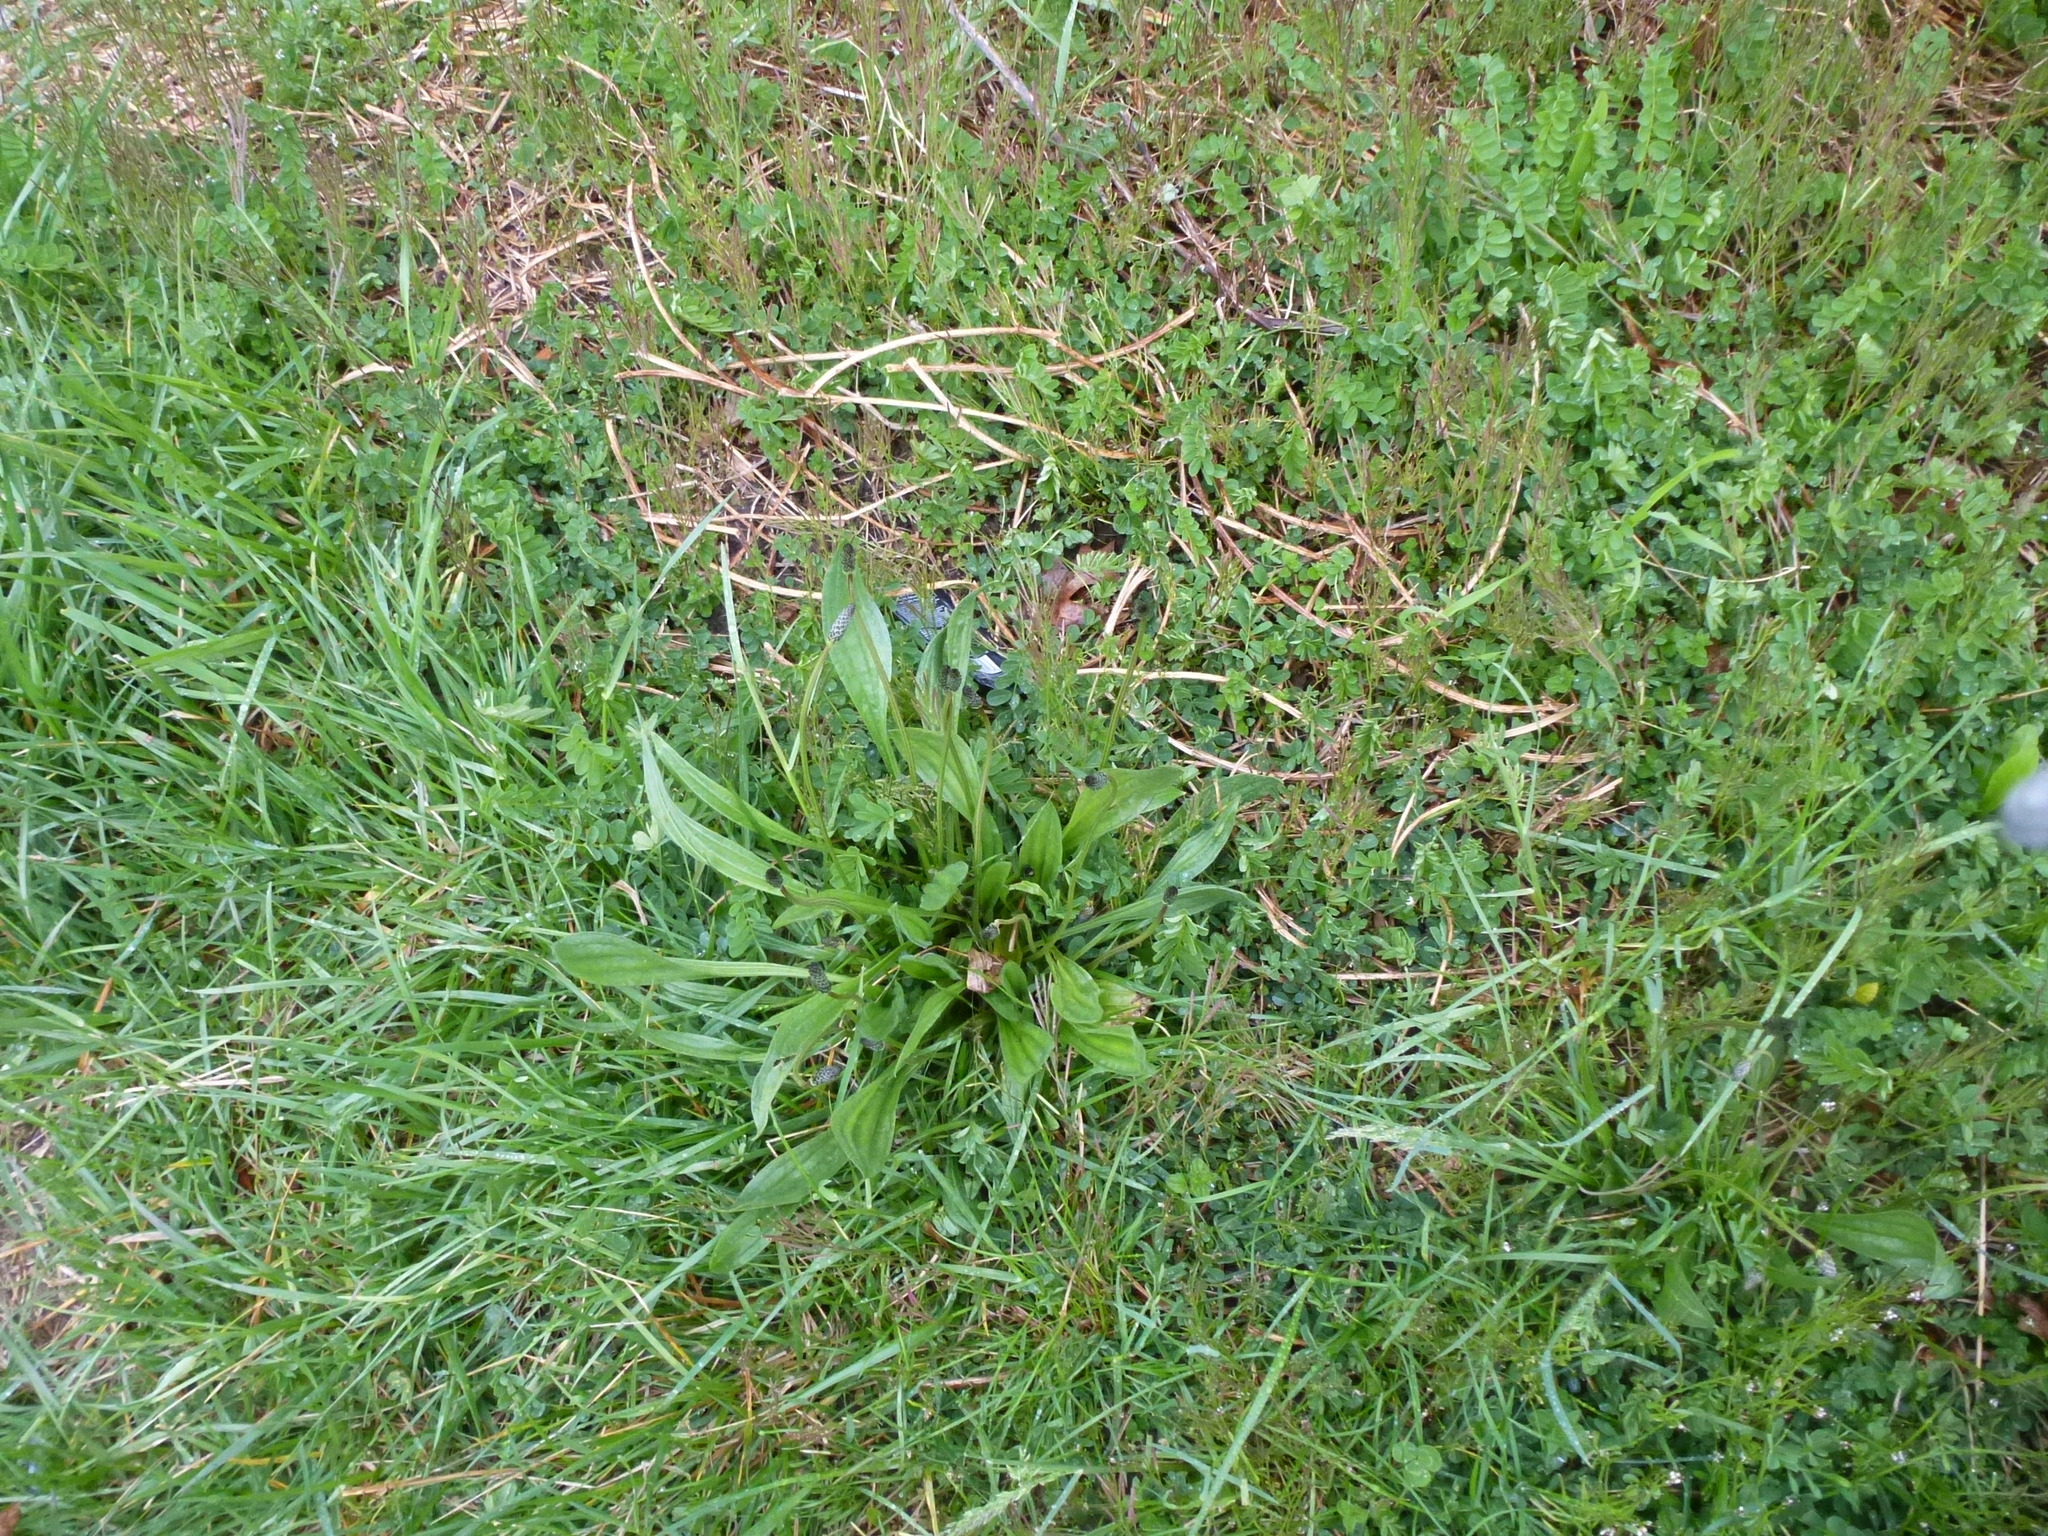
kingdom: Plantae
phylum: Tracheophyta
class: Magnoliopsida
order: Lamiales
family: Plantaginaceae
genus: Plantago
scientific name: Plantago lanceolata
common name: Ribwort plantain
